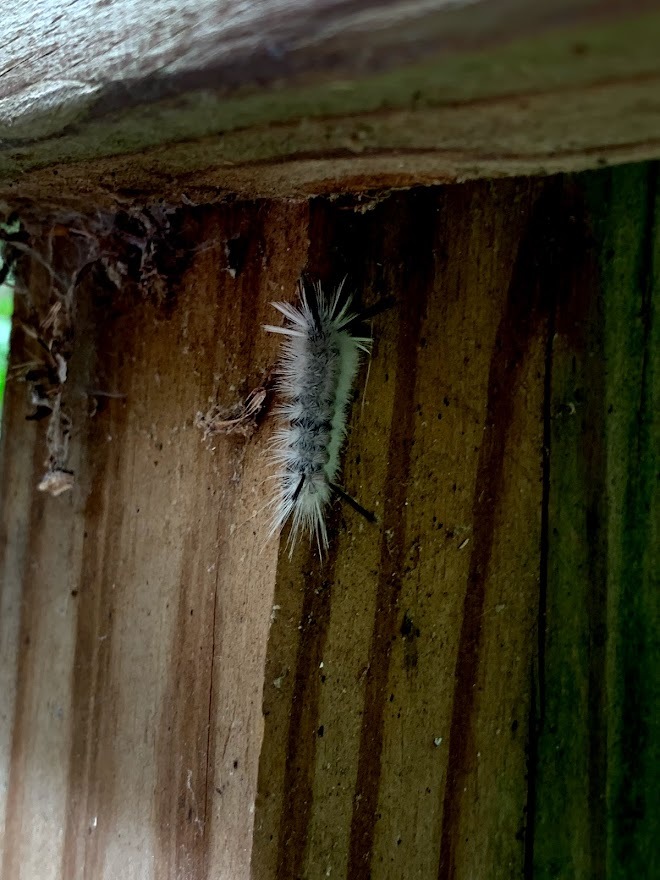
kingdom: Animalia
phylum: Arthropoda
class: Insecta
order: Lepidoptera
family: Erebidae
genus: Halysidota
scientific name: Halysidota tessellaris
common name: Banded tussock moth
